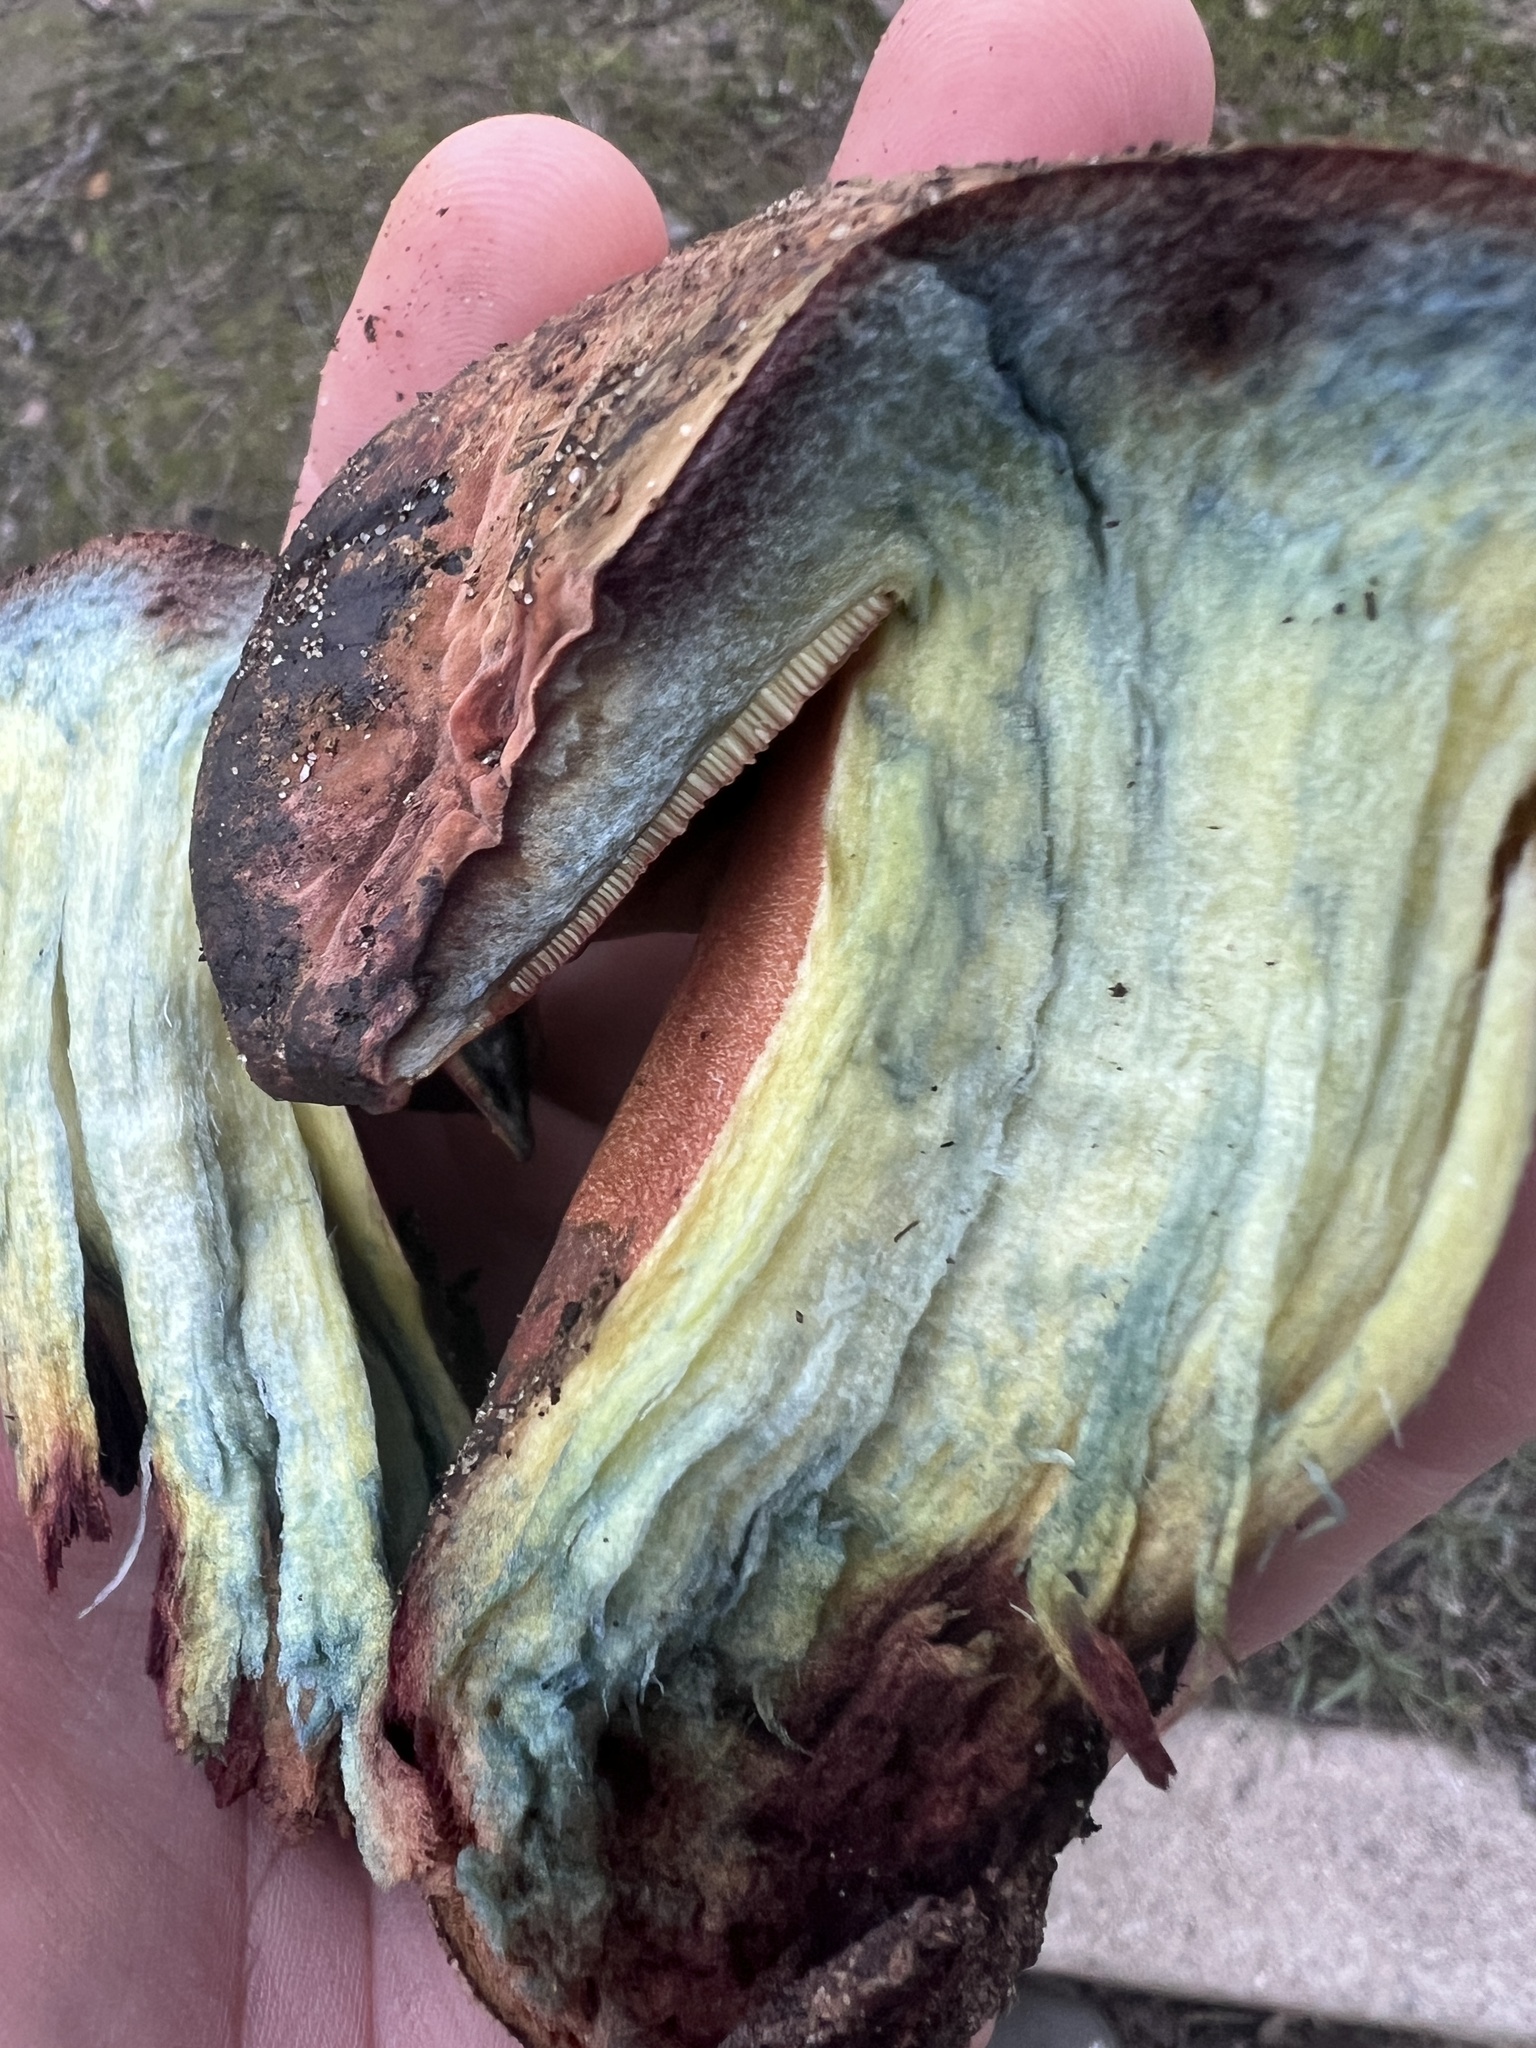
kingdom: Fungi
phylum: Basidiomycota
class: Agaricomycetes
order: Boletales
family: Boletaceae
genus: Suillellus
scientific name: Suillellus amygdalinus
